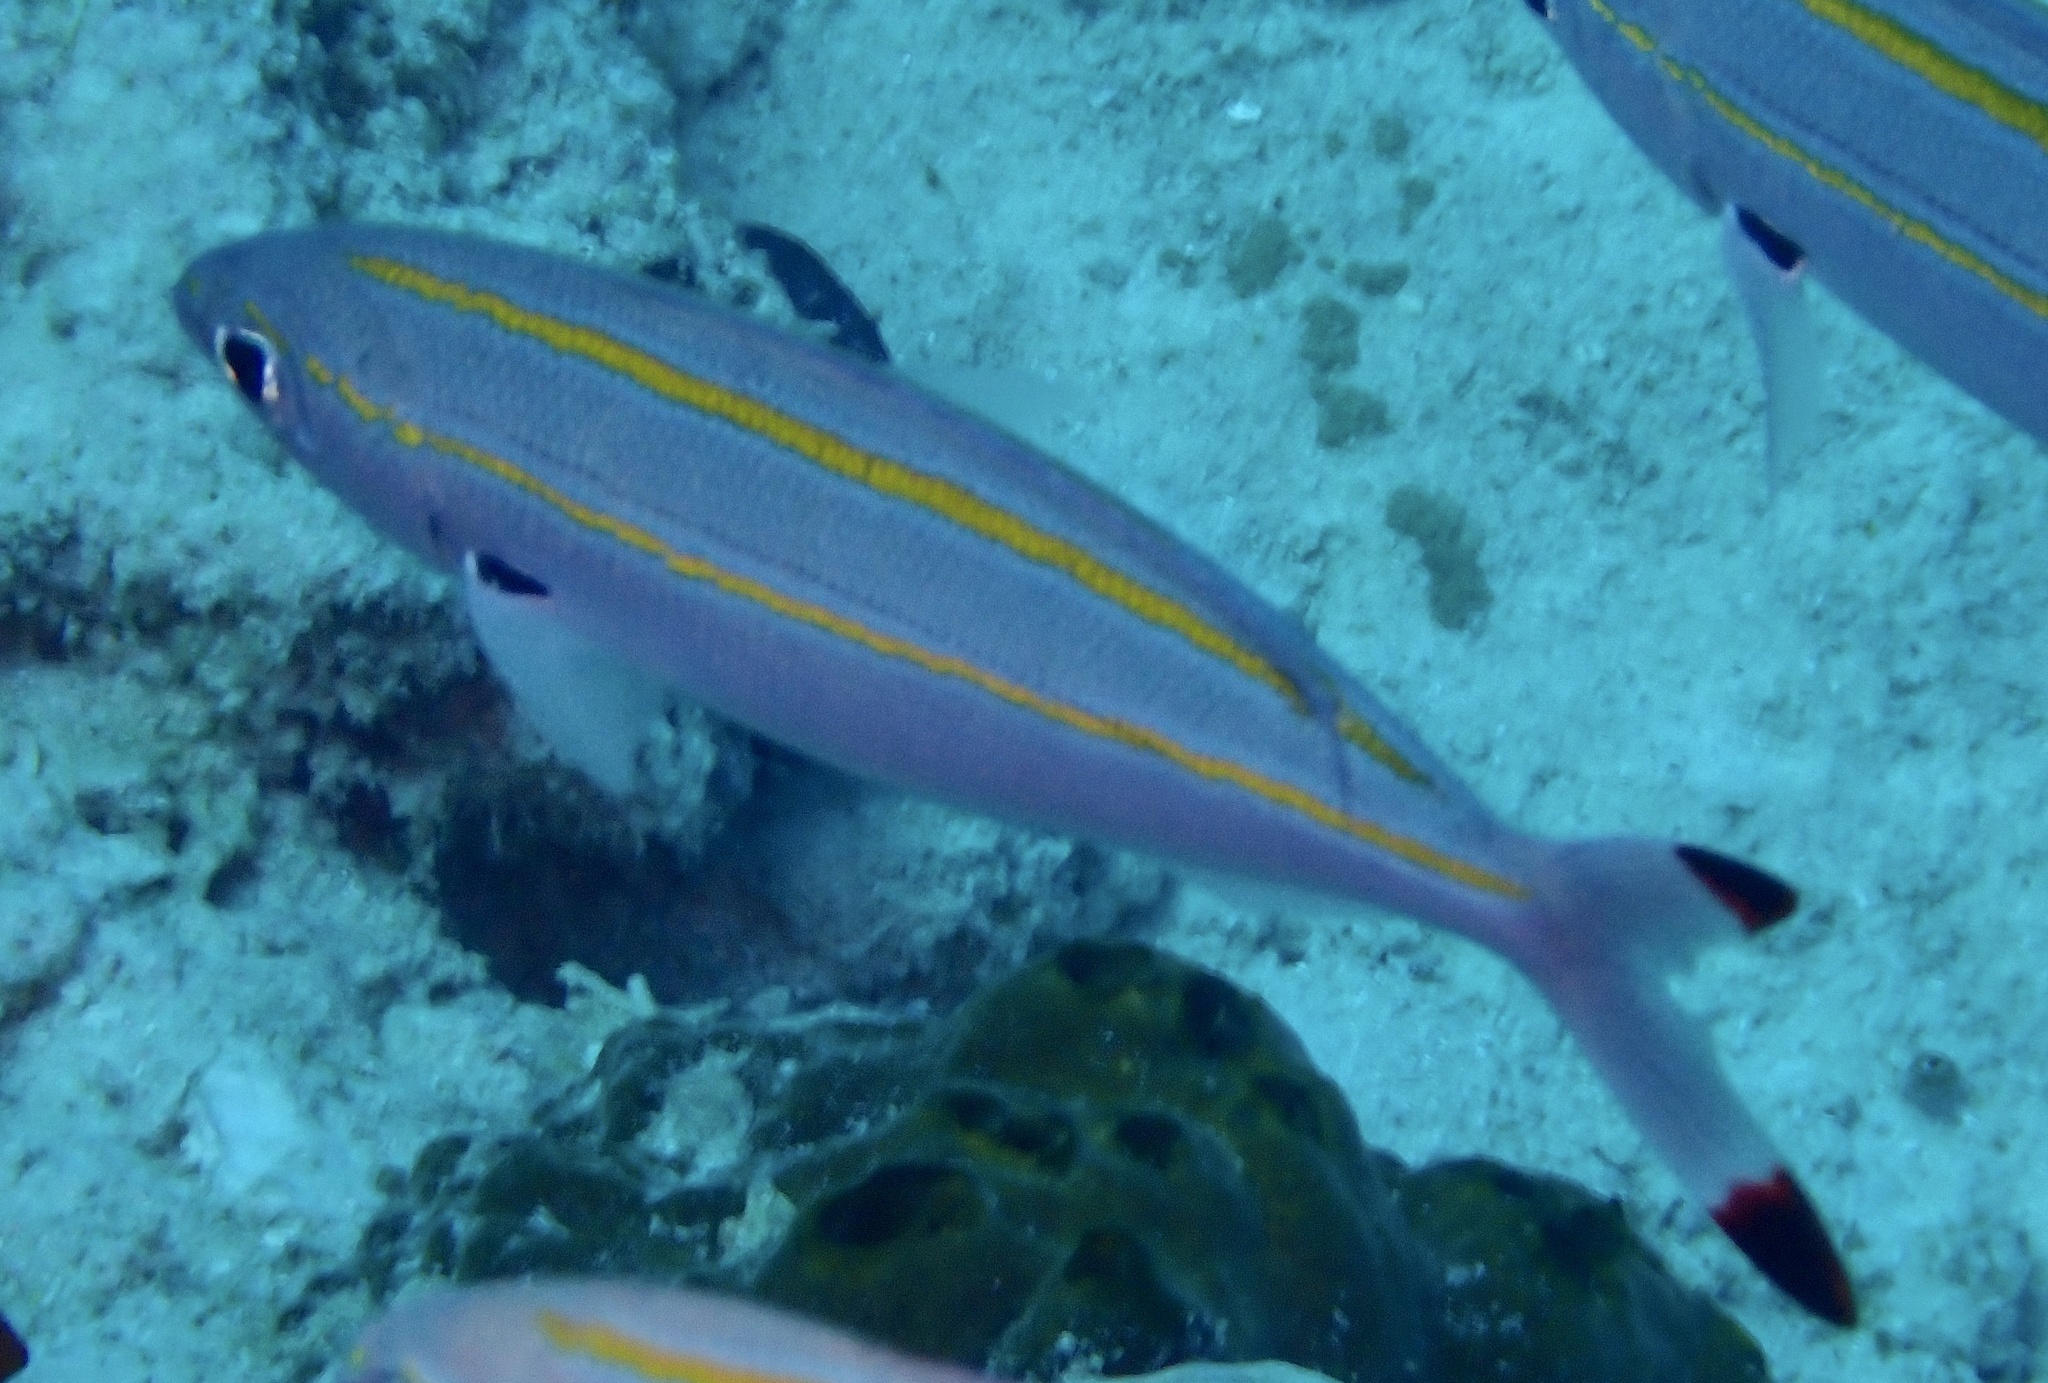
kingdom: Animalia
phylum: Chordata
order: Perciformes
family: Caesionidae
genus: Pterocaesio
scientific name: Pterocaesio digramma
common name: Double-lined fusilier
